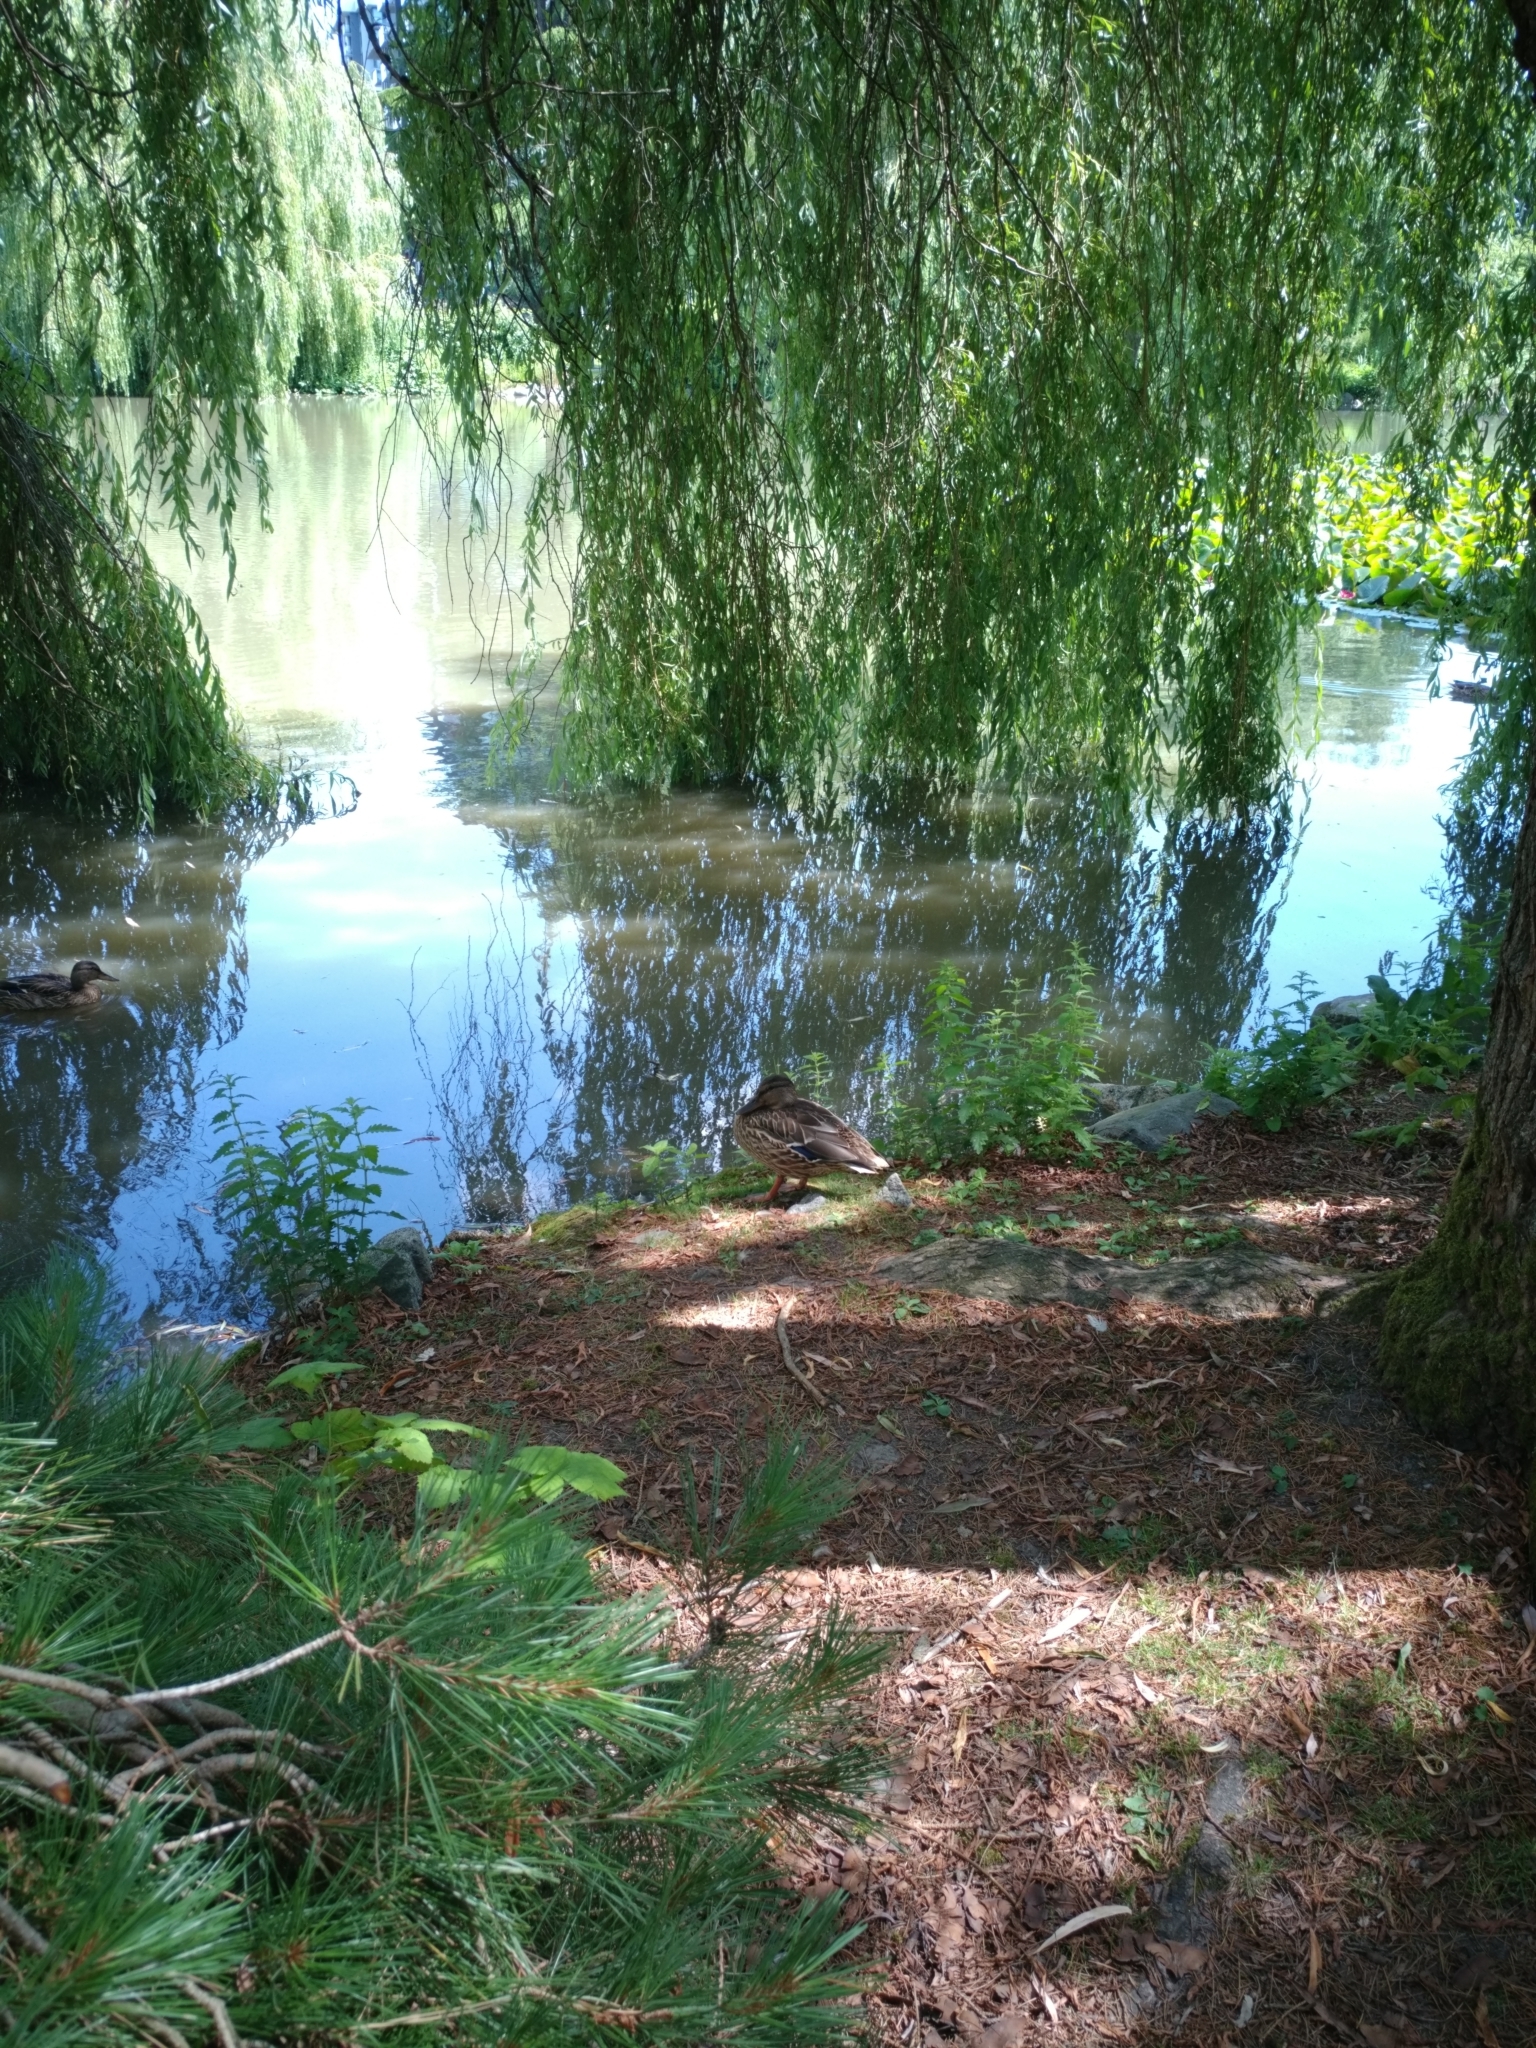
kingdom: Animalia
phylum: Chordata
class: Aves
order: Anseriformes
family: Anatidae
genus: Anas
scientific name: Anas platyrhynchos
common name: Mallard
